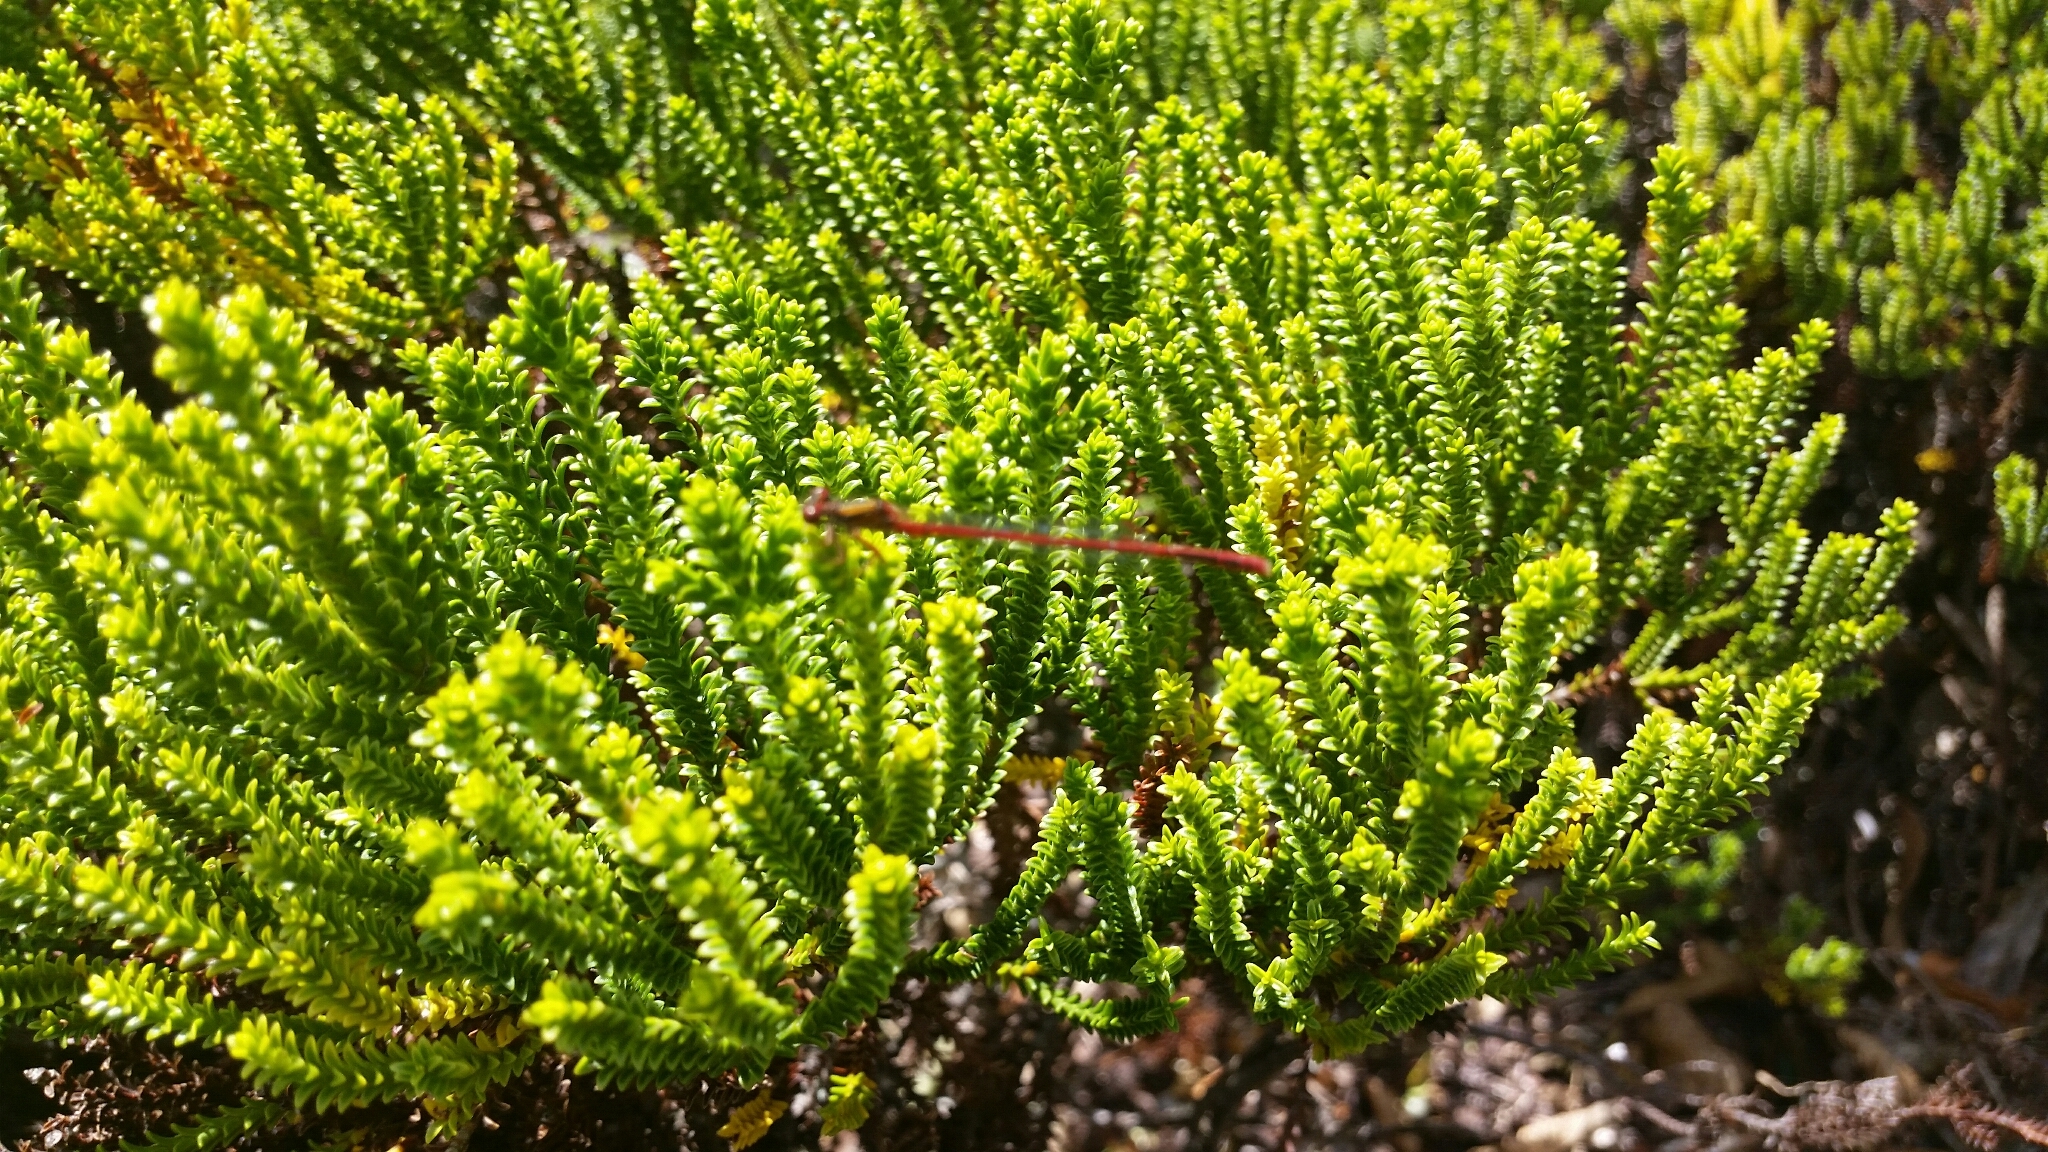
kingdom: Animalia
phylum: Arthropoda
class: Insecta
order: Odonata
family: Coenagrionidae
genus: Xanthocnemis
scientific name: Xanthocnemis zealandica
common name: Common redcoat damselfly
